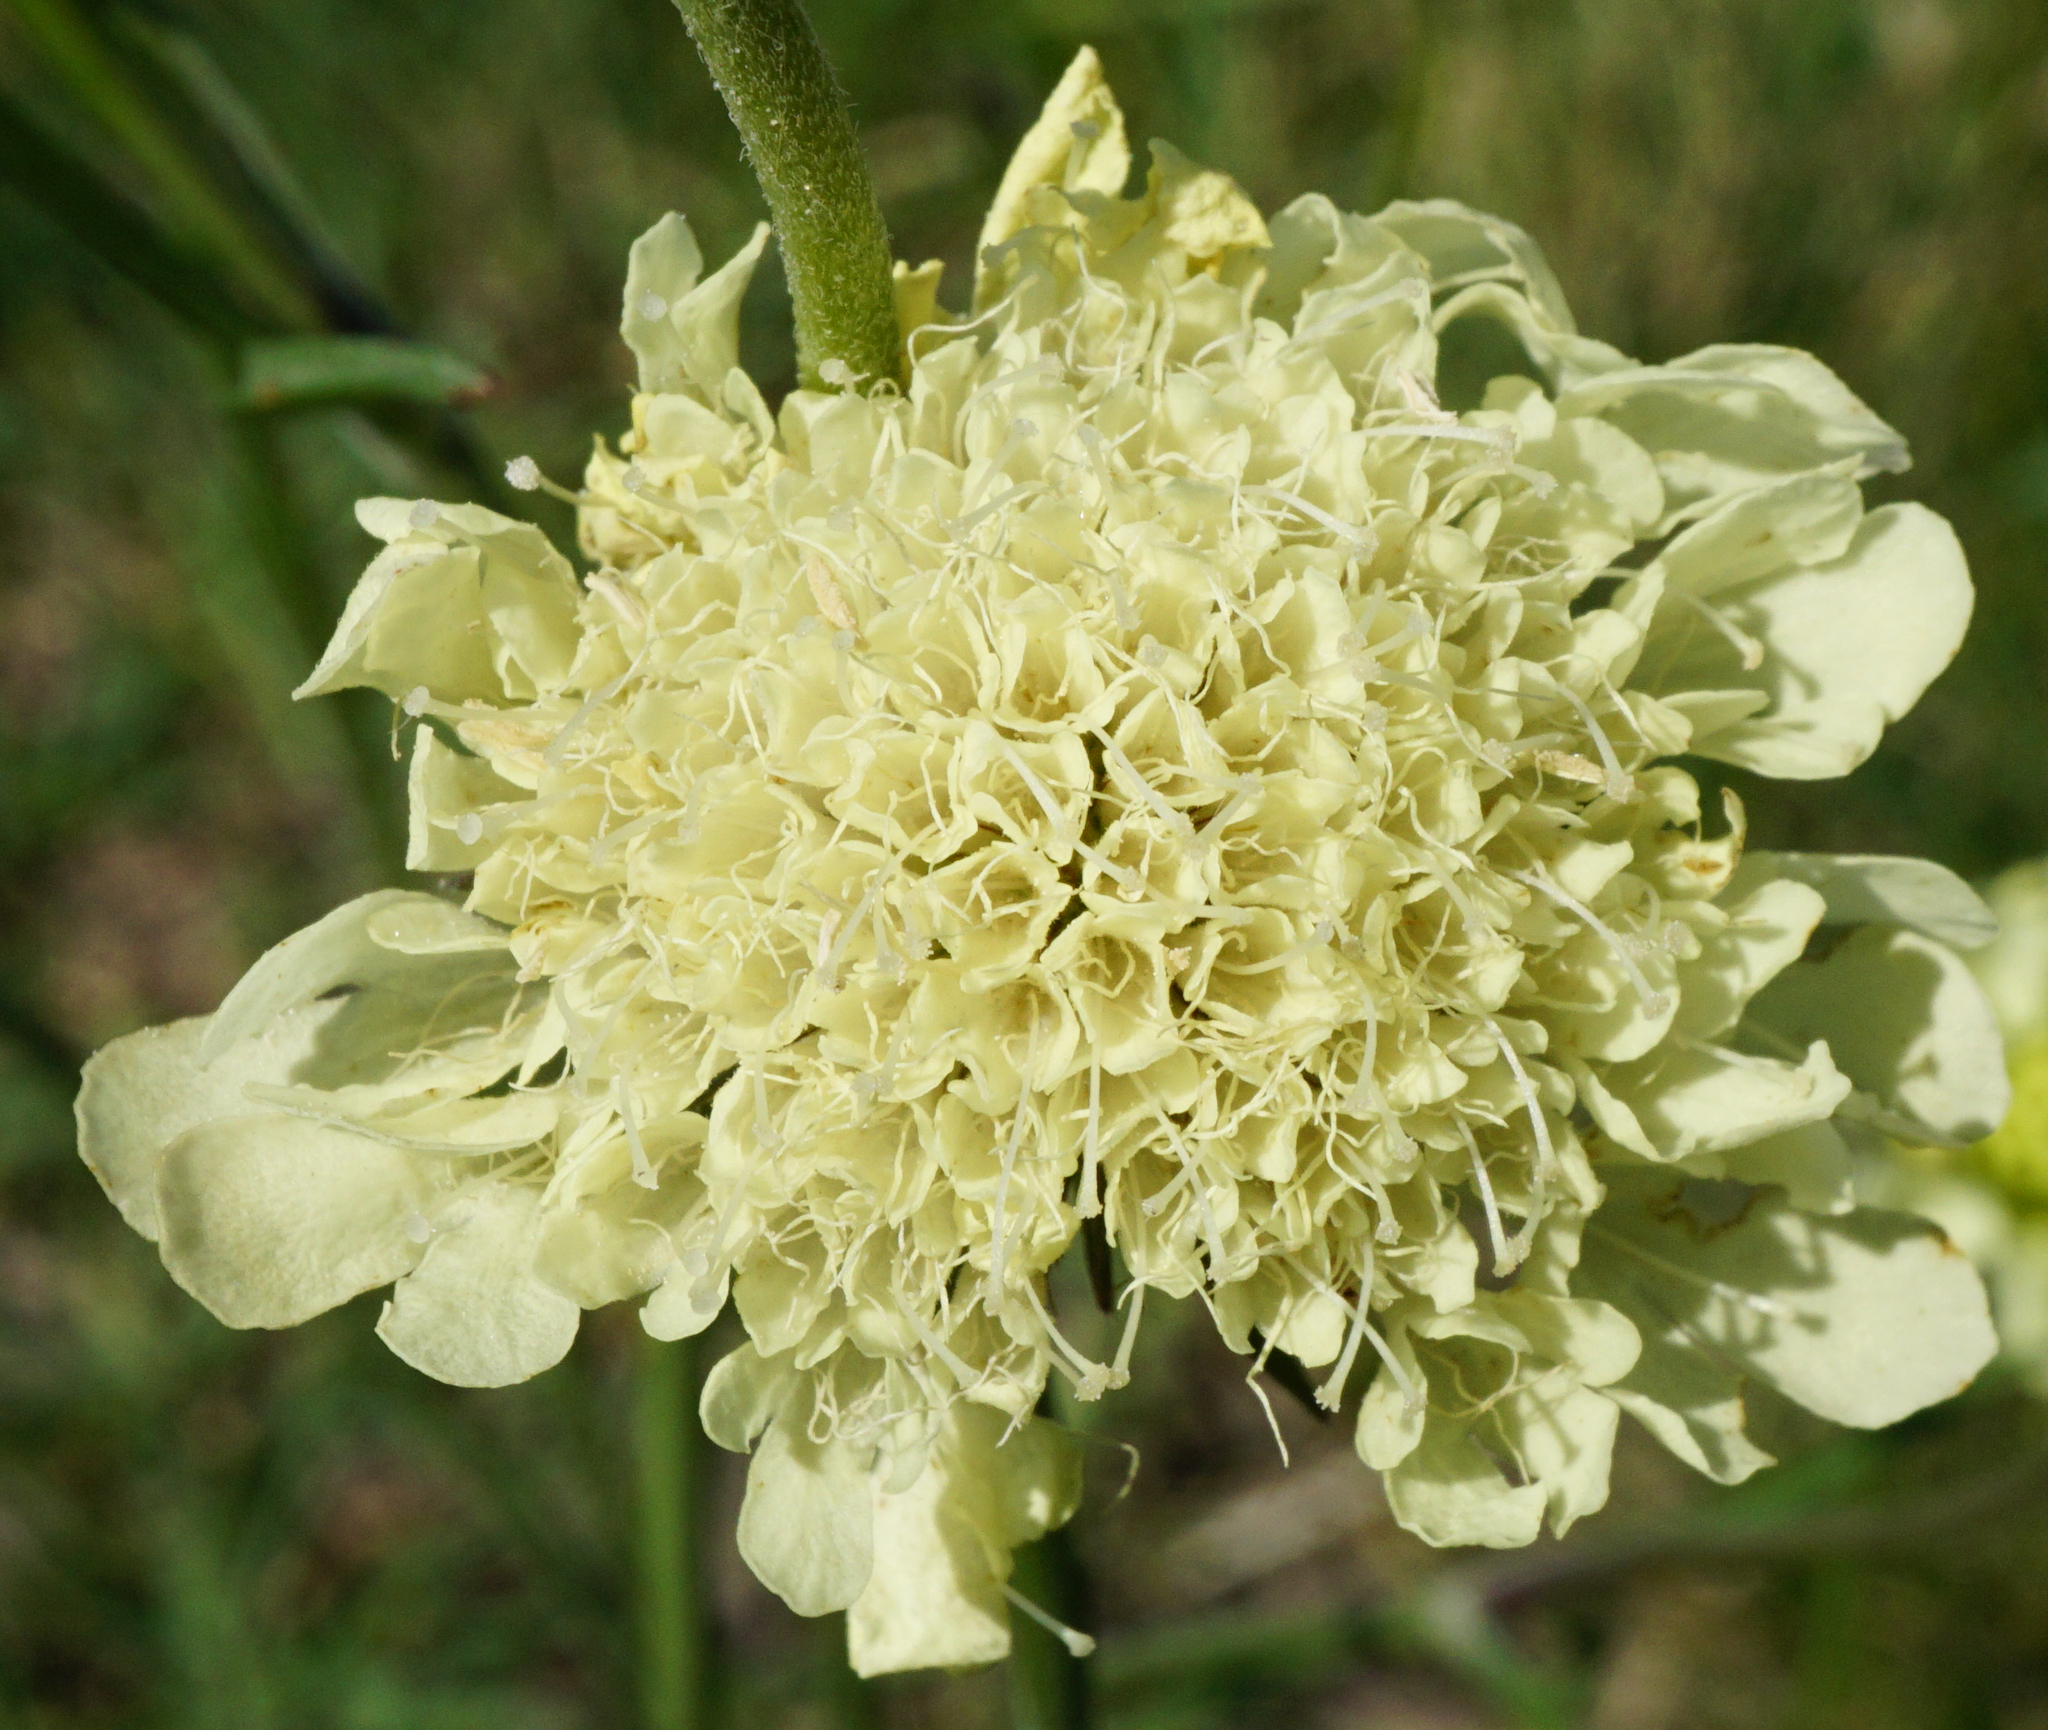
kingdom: Plantae
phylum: Tracheophyta
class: Magnoliopsida
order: Dipsacales
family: Caprifoliaceae
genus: Scabiosa
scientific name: Scabiosa ochroleuca
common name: Cream pincushions
